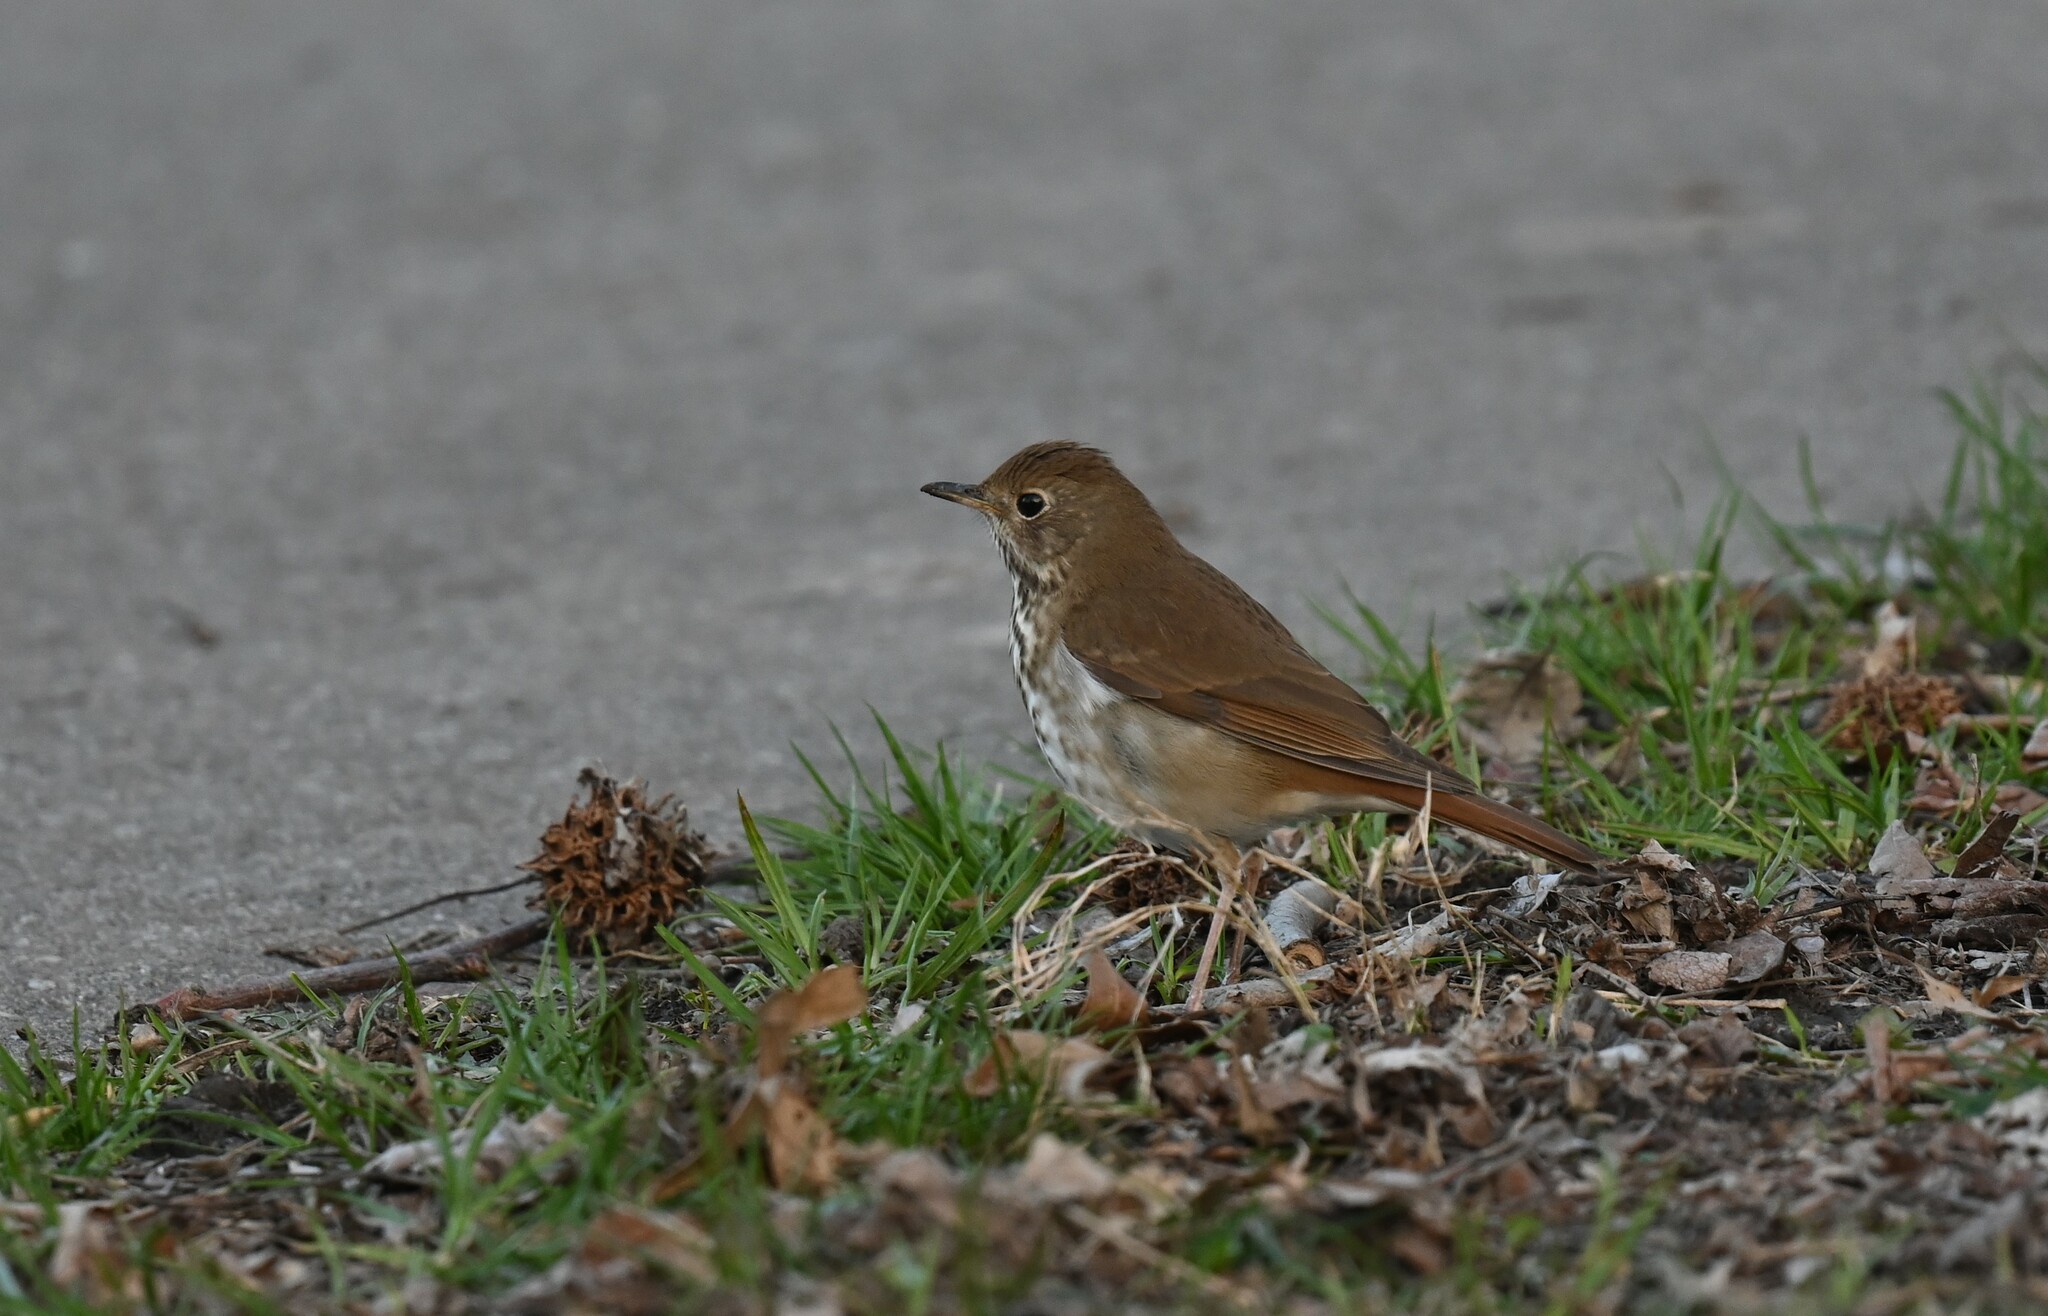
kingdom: Animalia
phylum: Chordata
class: Aves
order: Passeriformes
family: Turdidae
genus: Catharus
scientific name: Catharus guttatus
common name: Hermit thrush
